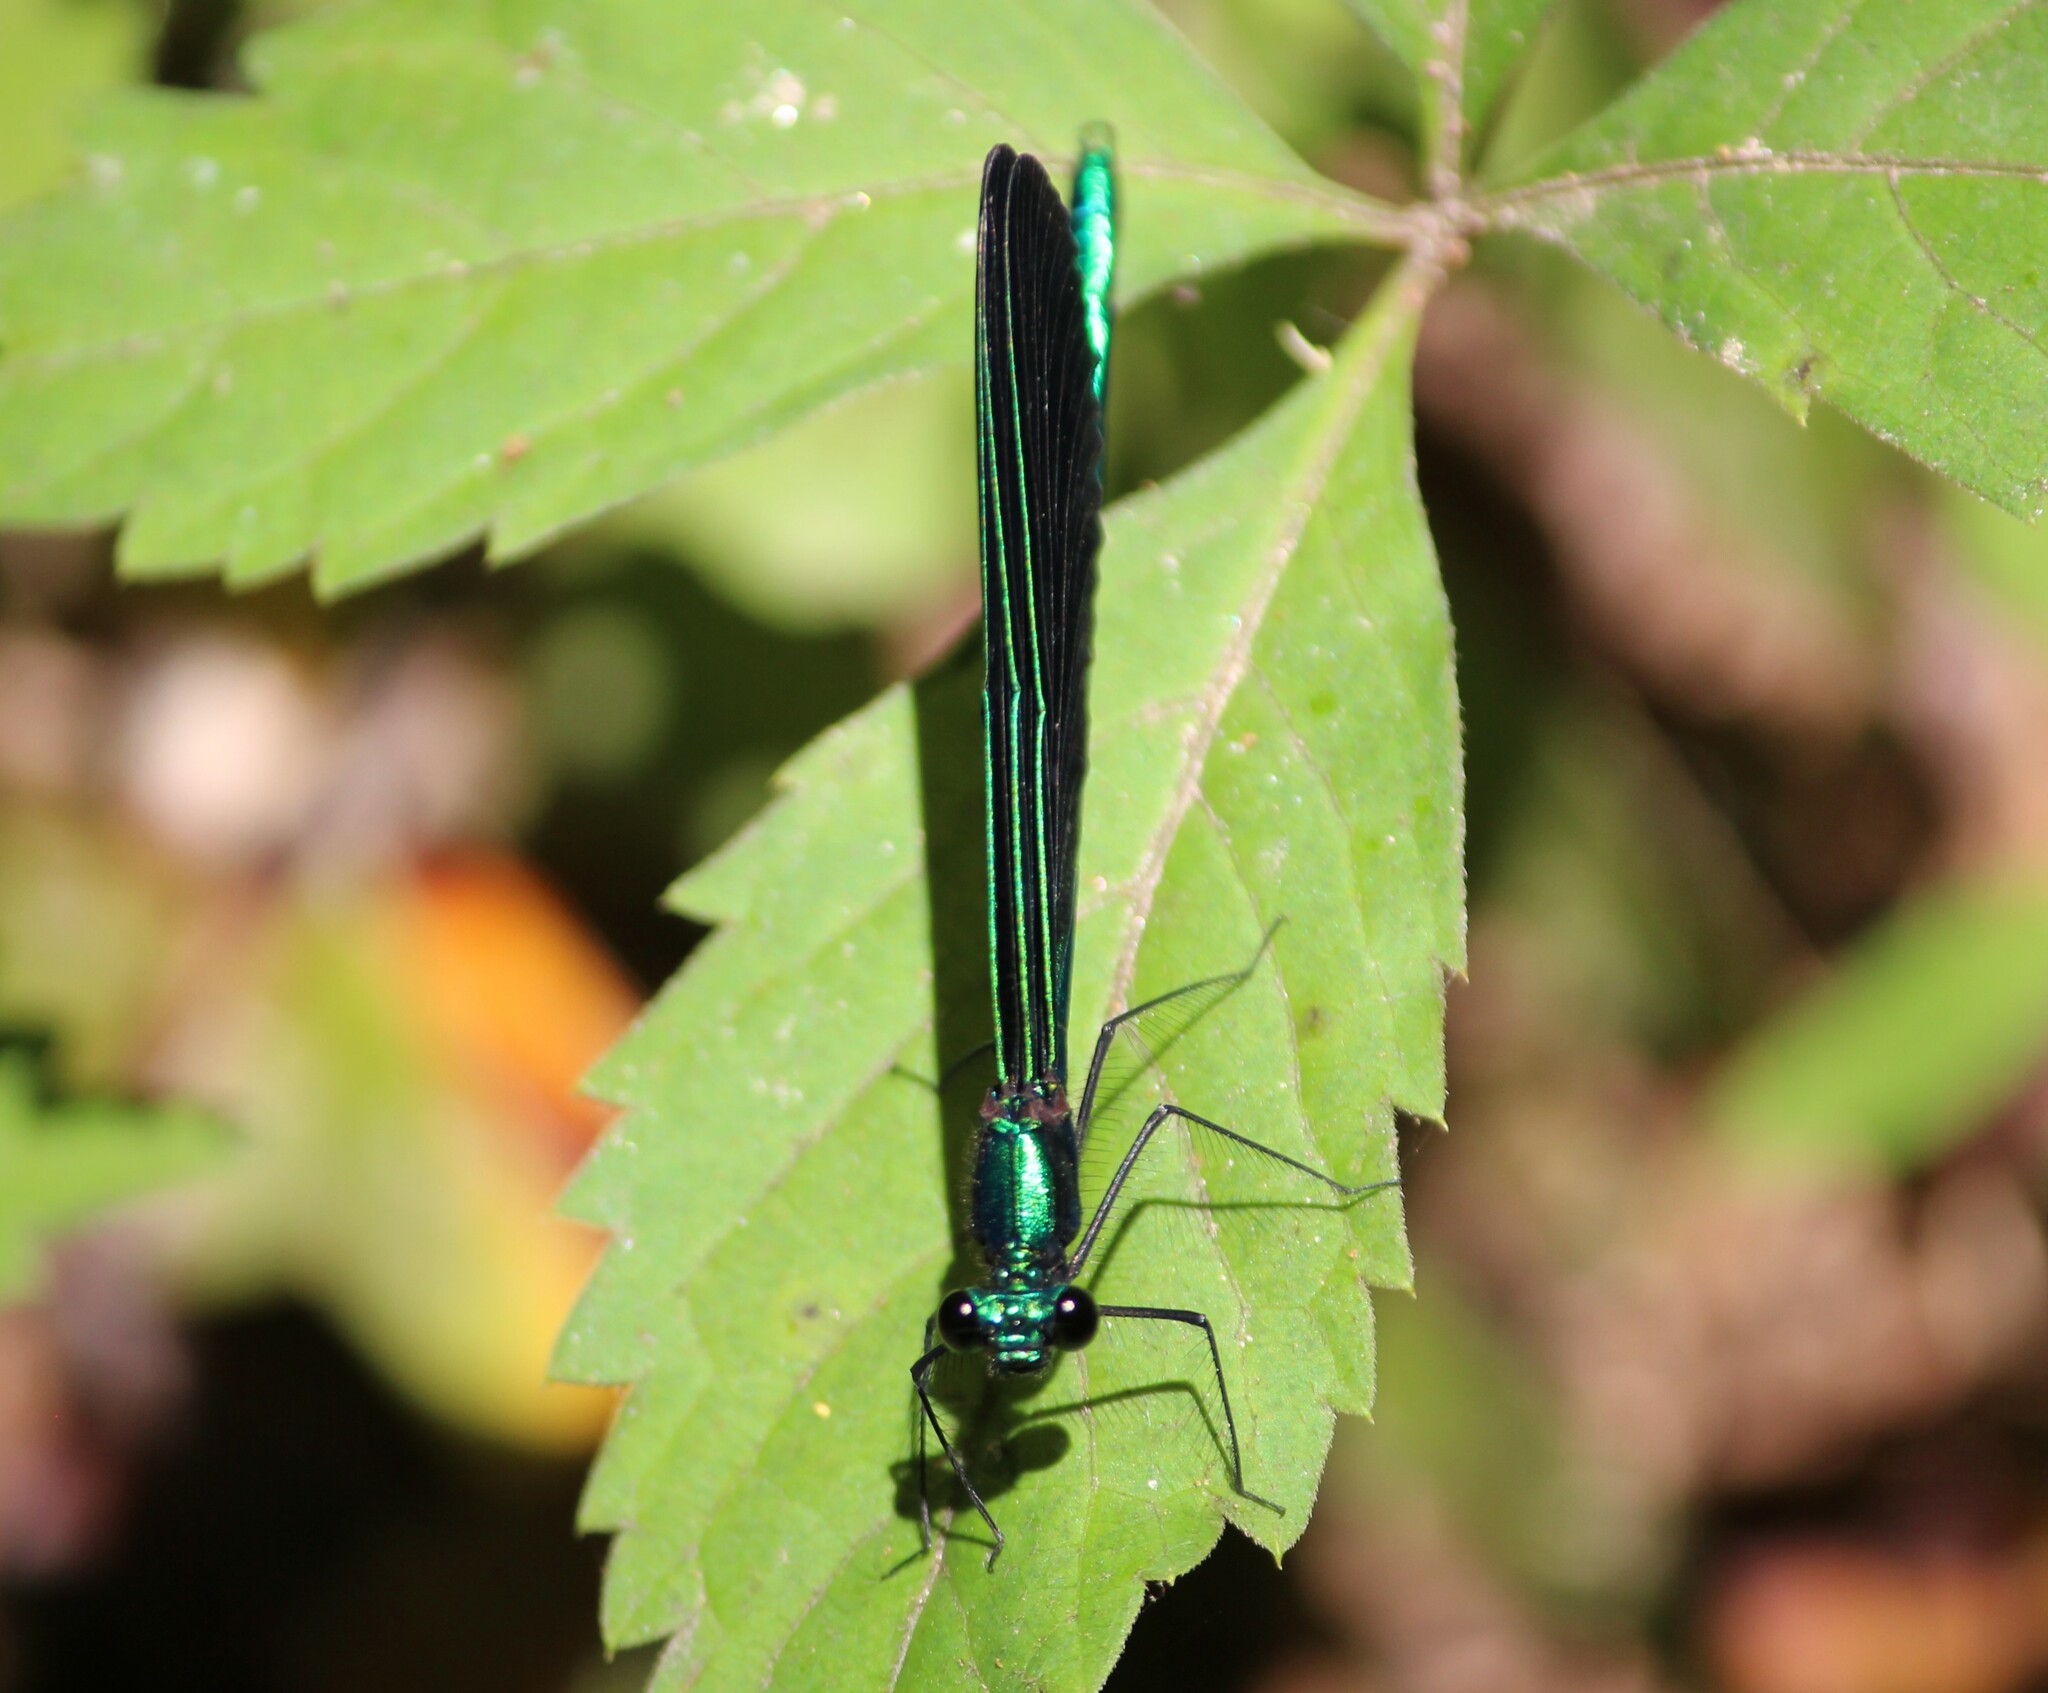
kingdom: Animalia
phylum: Arthropoda
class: Insecta
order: Odonata
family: Calopterygidae
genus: Calopteryx
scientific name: Calopteryx maculata
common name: Ebony jewelwing
